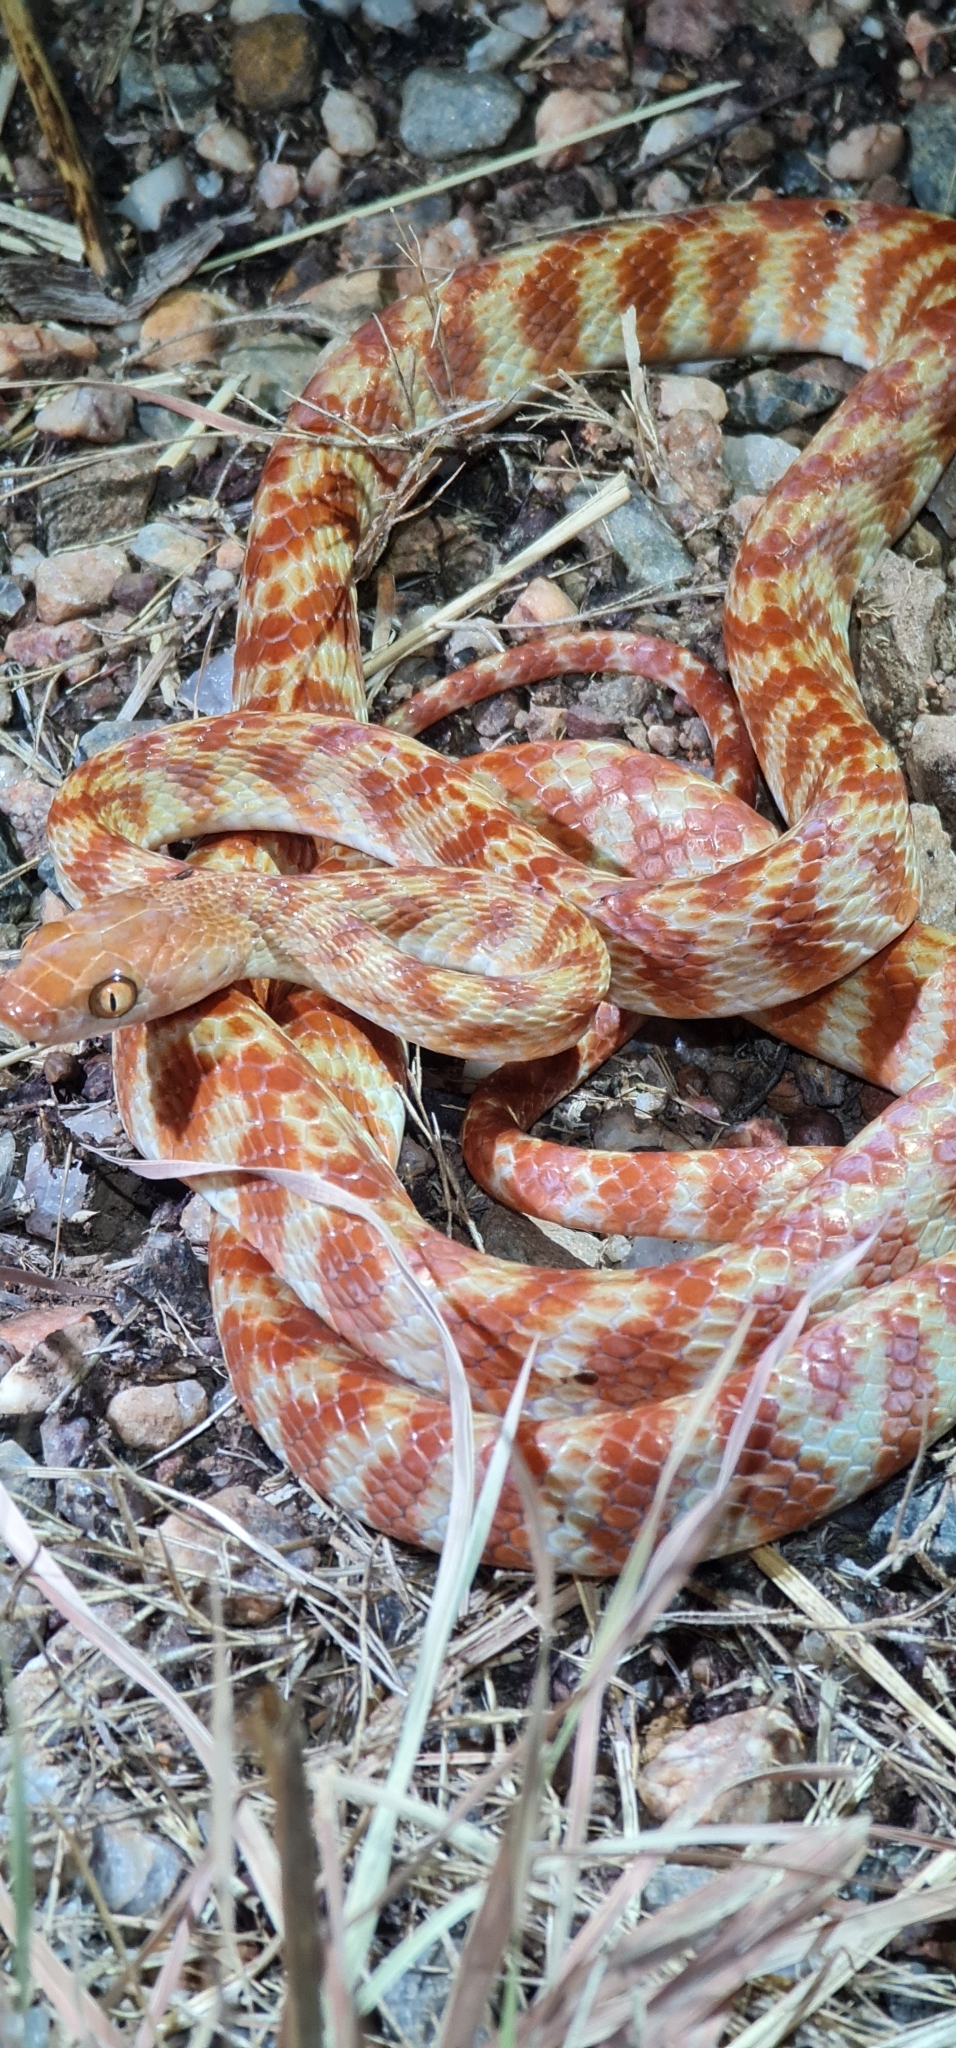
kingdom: Animalia
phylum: Chordata
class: Squamata
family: Colubridae
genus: Boiga
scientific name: Boiga irregularis
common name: Brown tree snake
